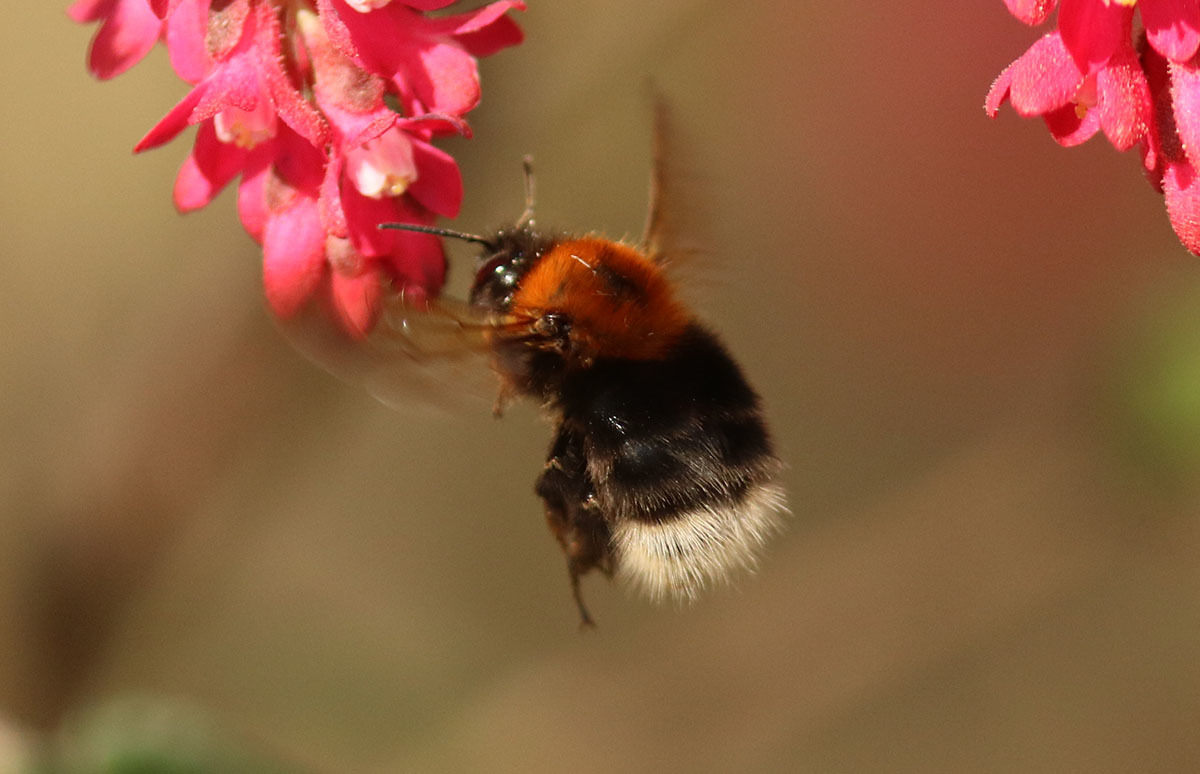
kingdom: Animalia
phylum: Arthropoda
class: Insecta
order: Hymenoptera
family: Apidae
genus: Bombus
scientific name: Bombus hypnorum
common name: New garden bumblebee
